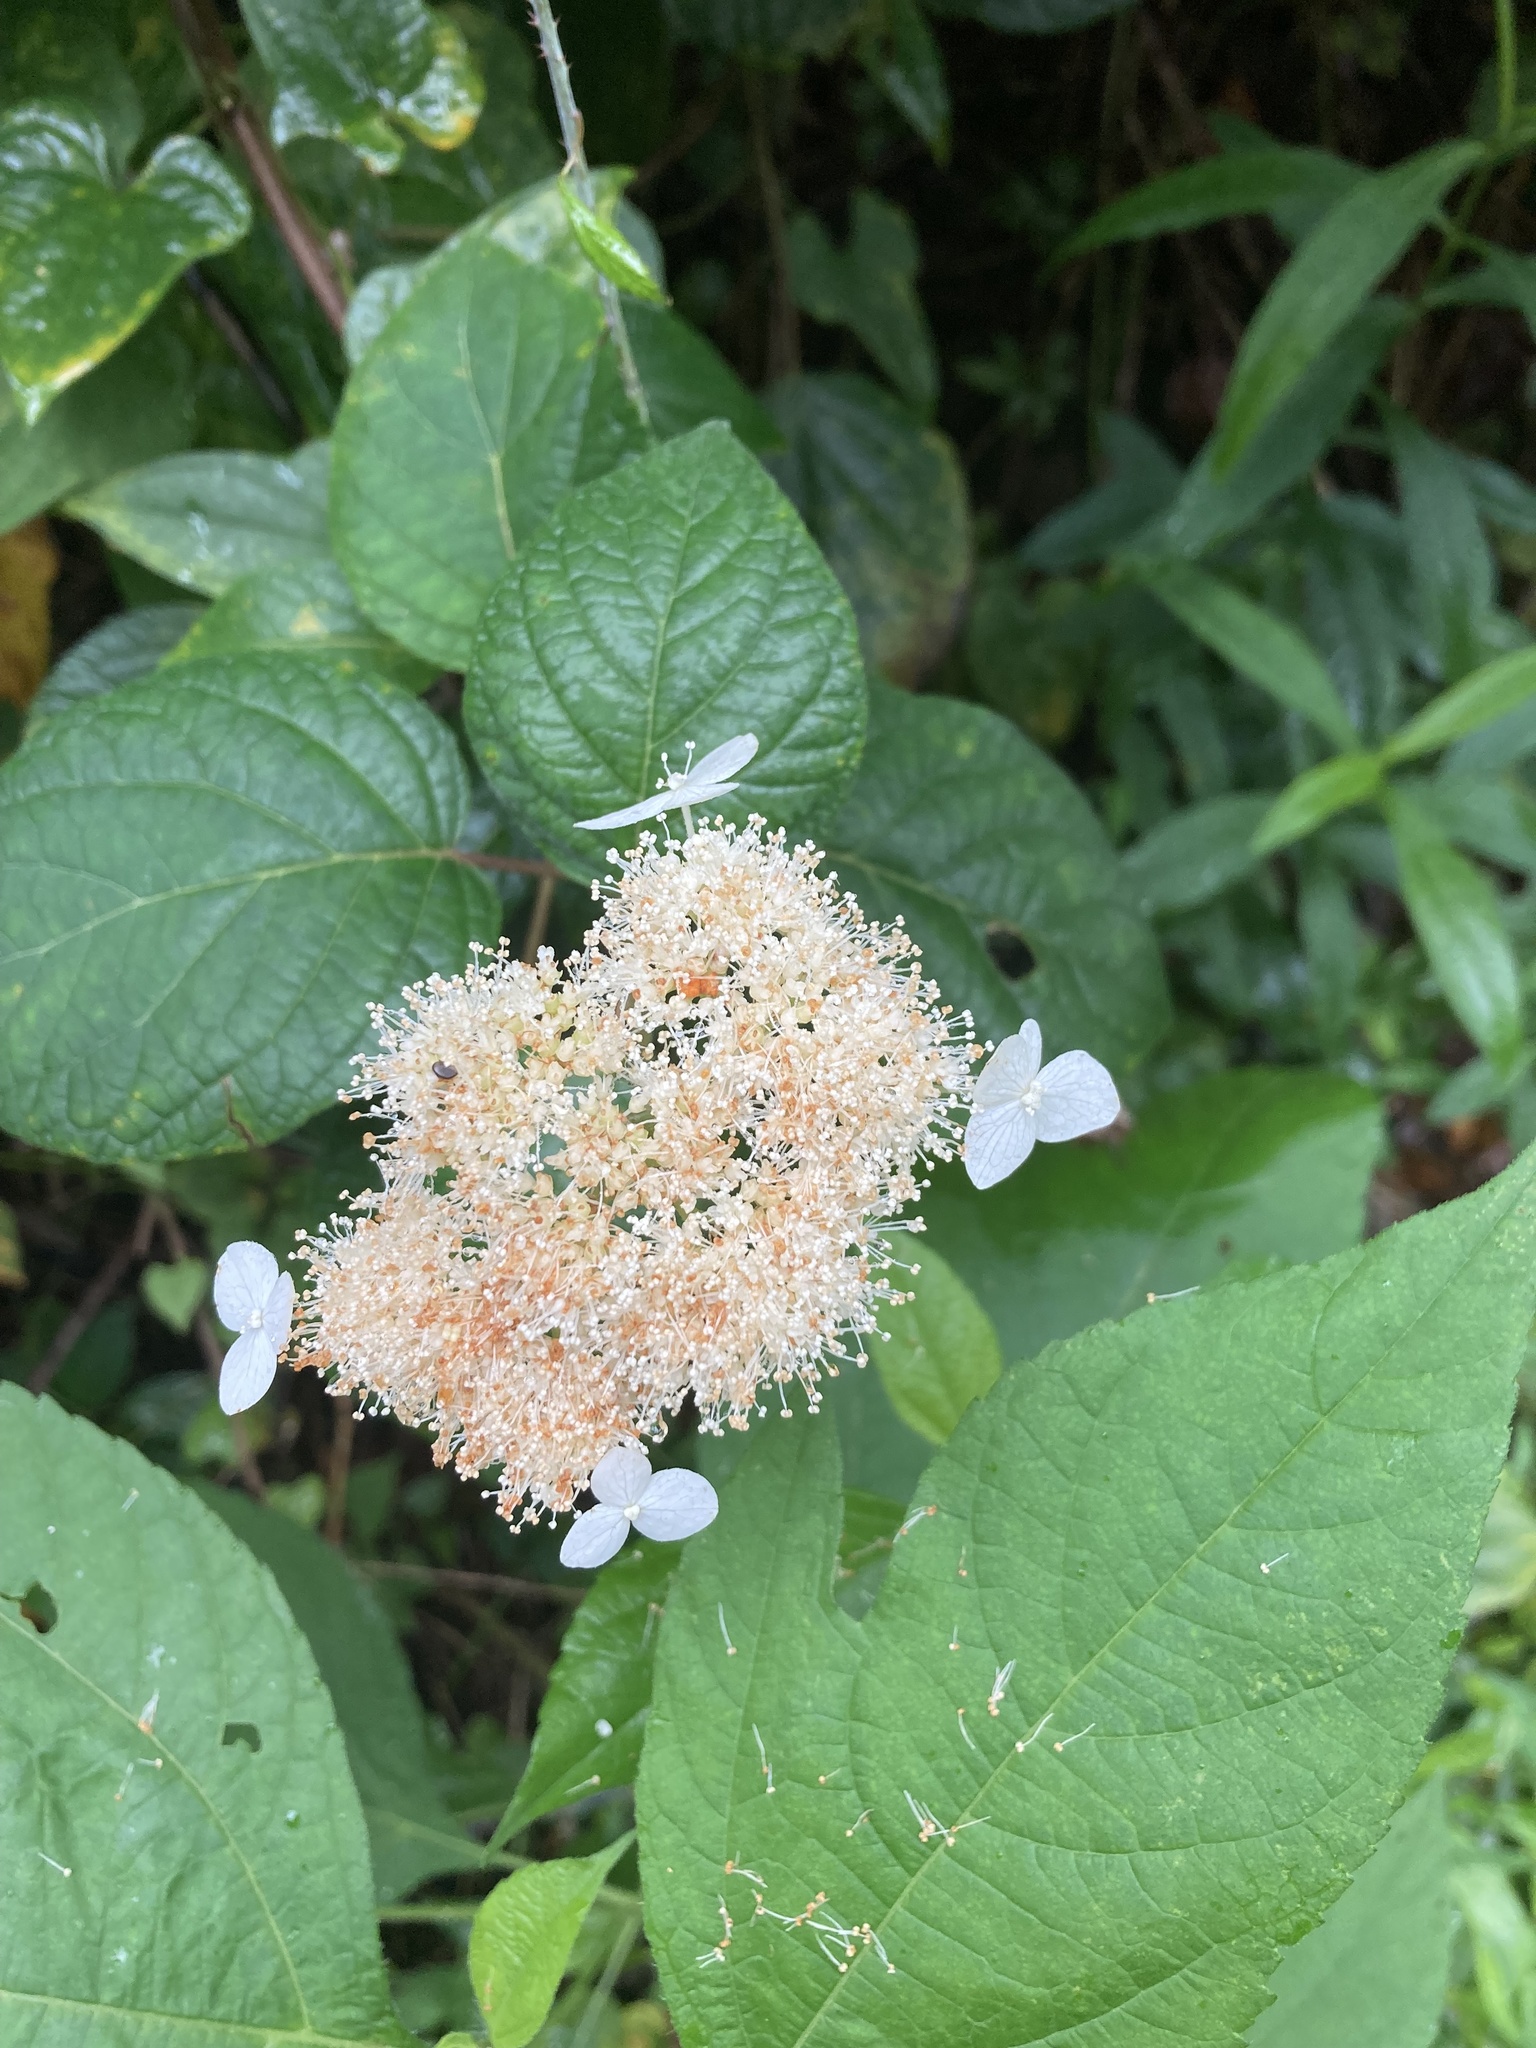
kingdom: Plantae
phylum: Tracheophyta
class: Magnoliopsida
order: Cornales
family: Hydrangeaceae
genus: Hydrangea
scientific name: Hydrangea arborescens
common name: Sevenbark
